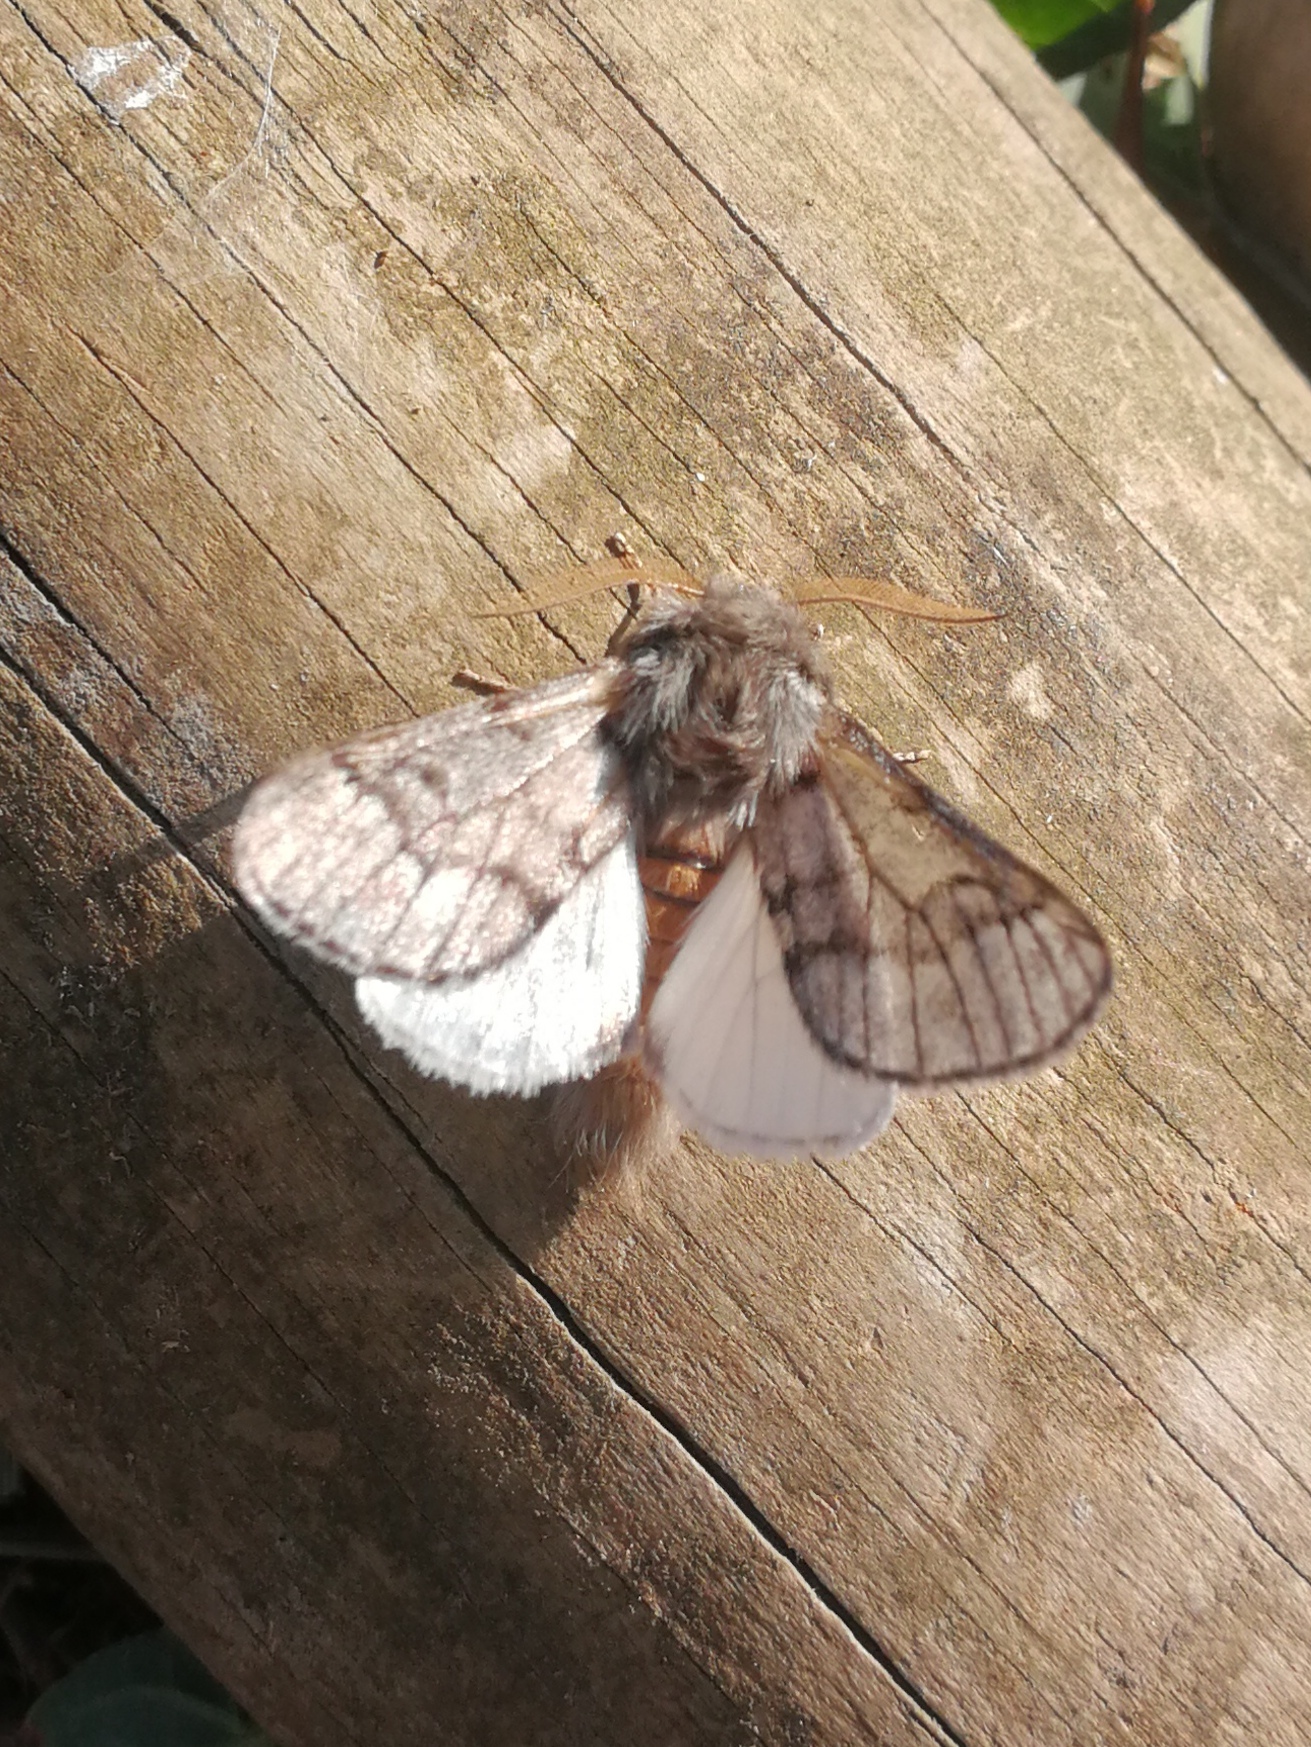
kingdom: Animalia
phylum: Arthropoda
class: Insecta
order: Lepidoptera
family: Notodontidae
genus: Thaumetopoea
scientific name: Thaumetopoea pityocampa
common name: Pine processionary
